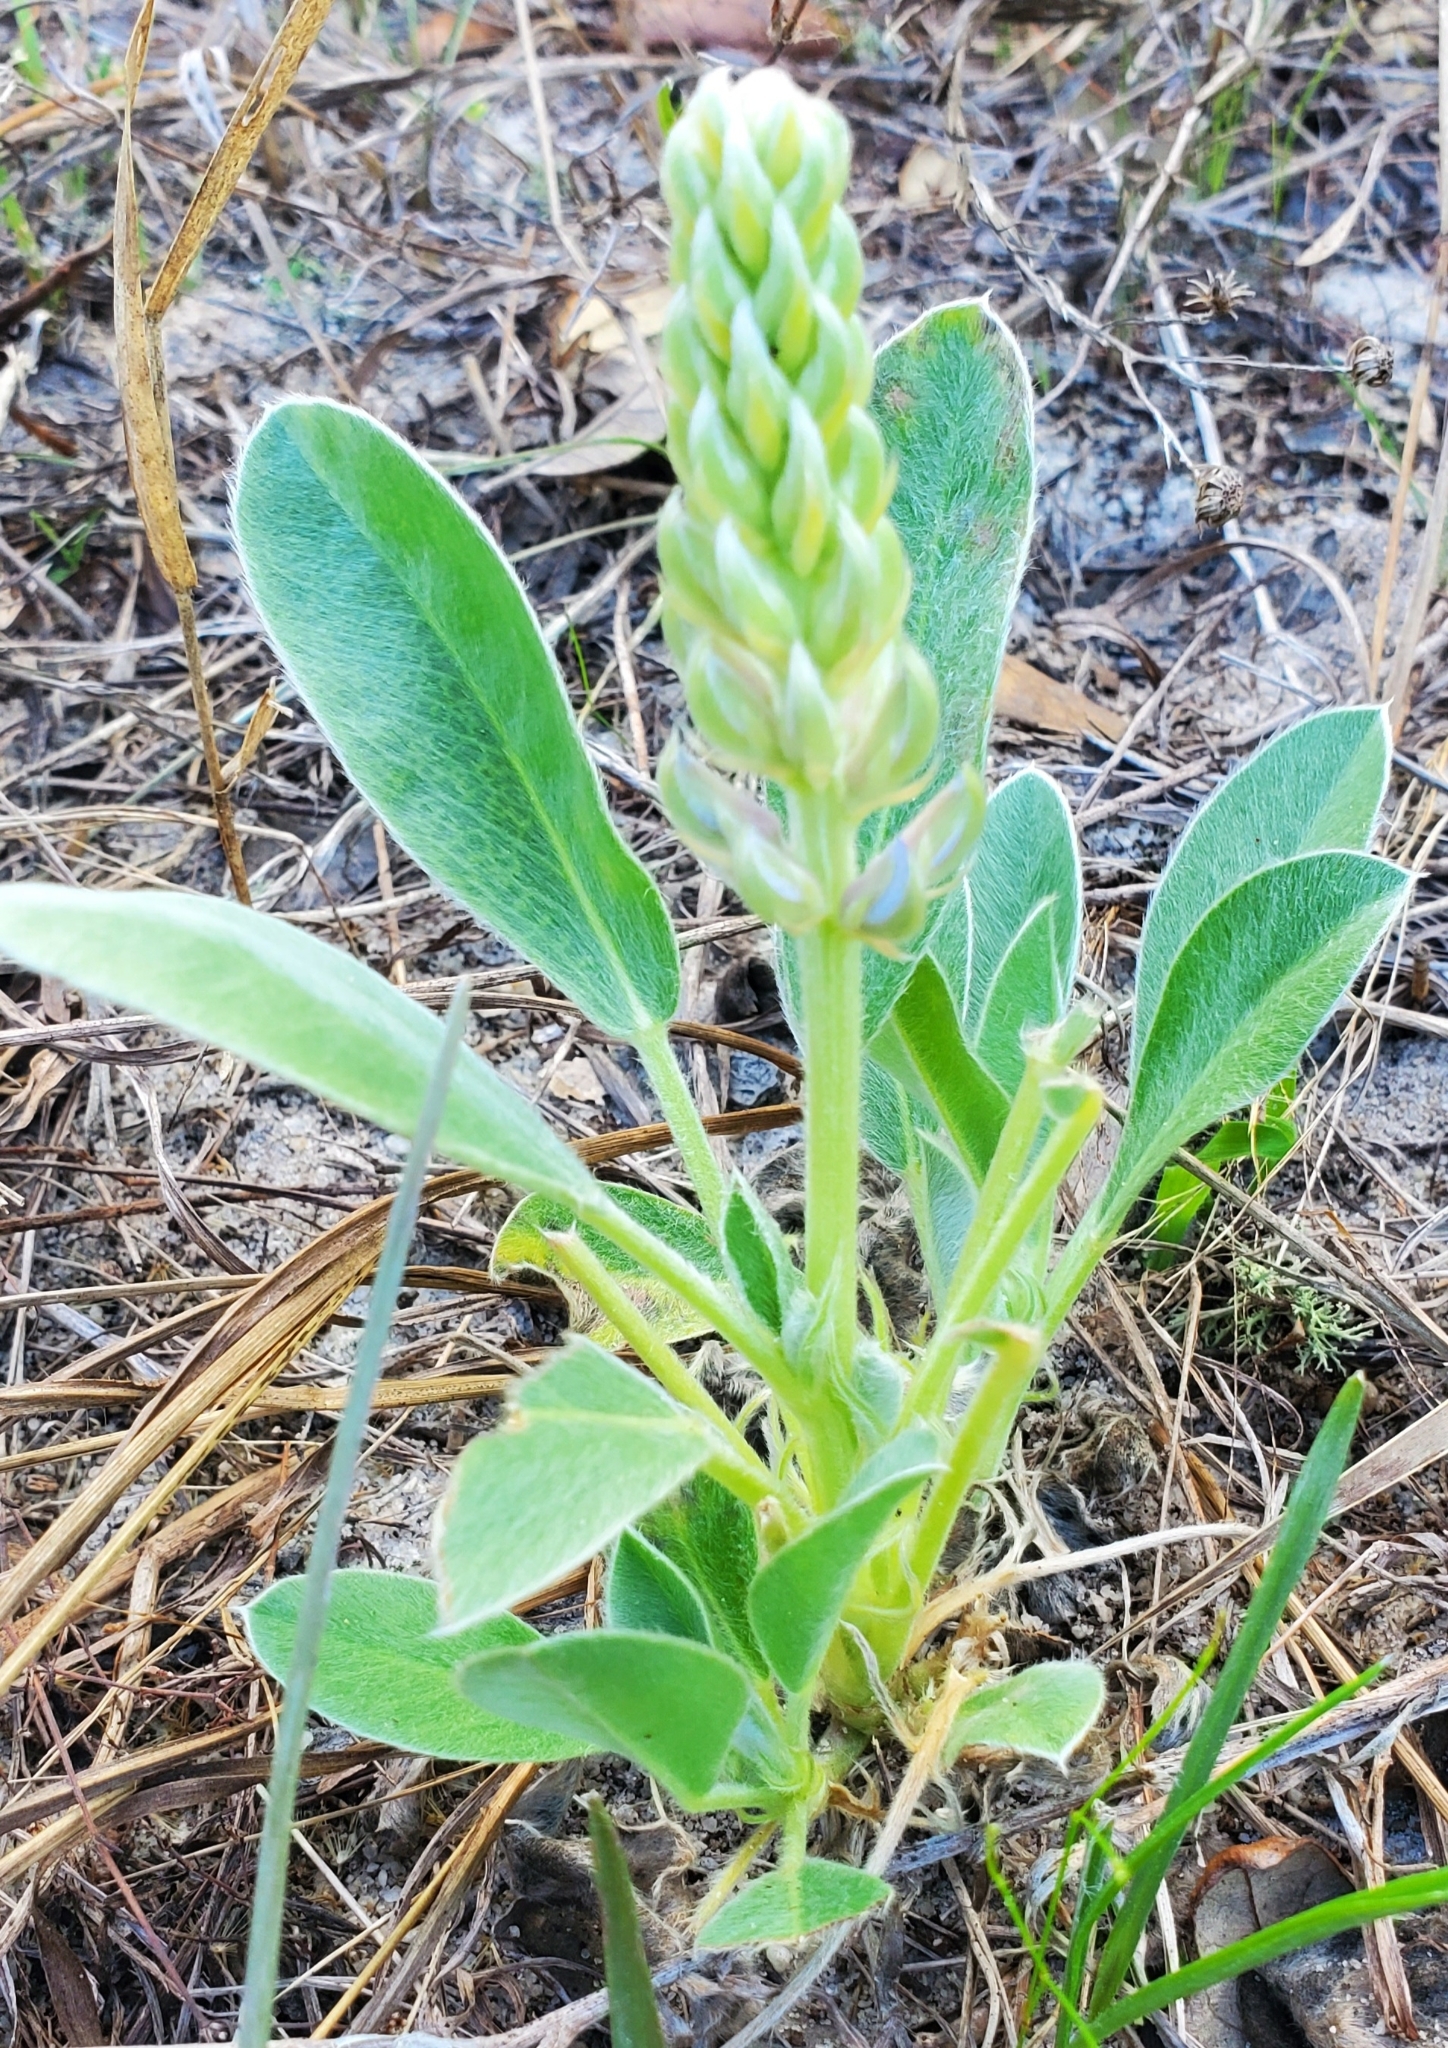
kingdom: Plantae
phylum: Tracheophyta
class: Magnoliopsida
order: Fabales
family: Fabaceae
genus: Lupinus
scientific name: Lupinus
